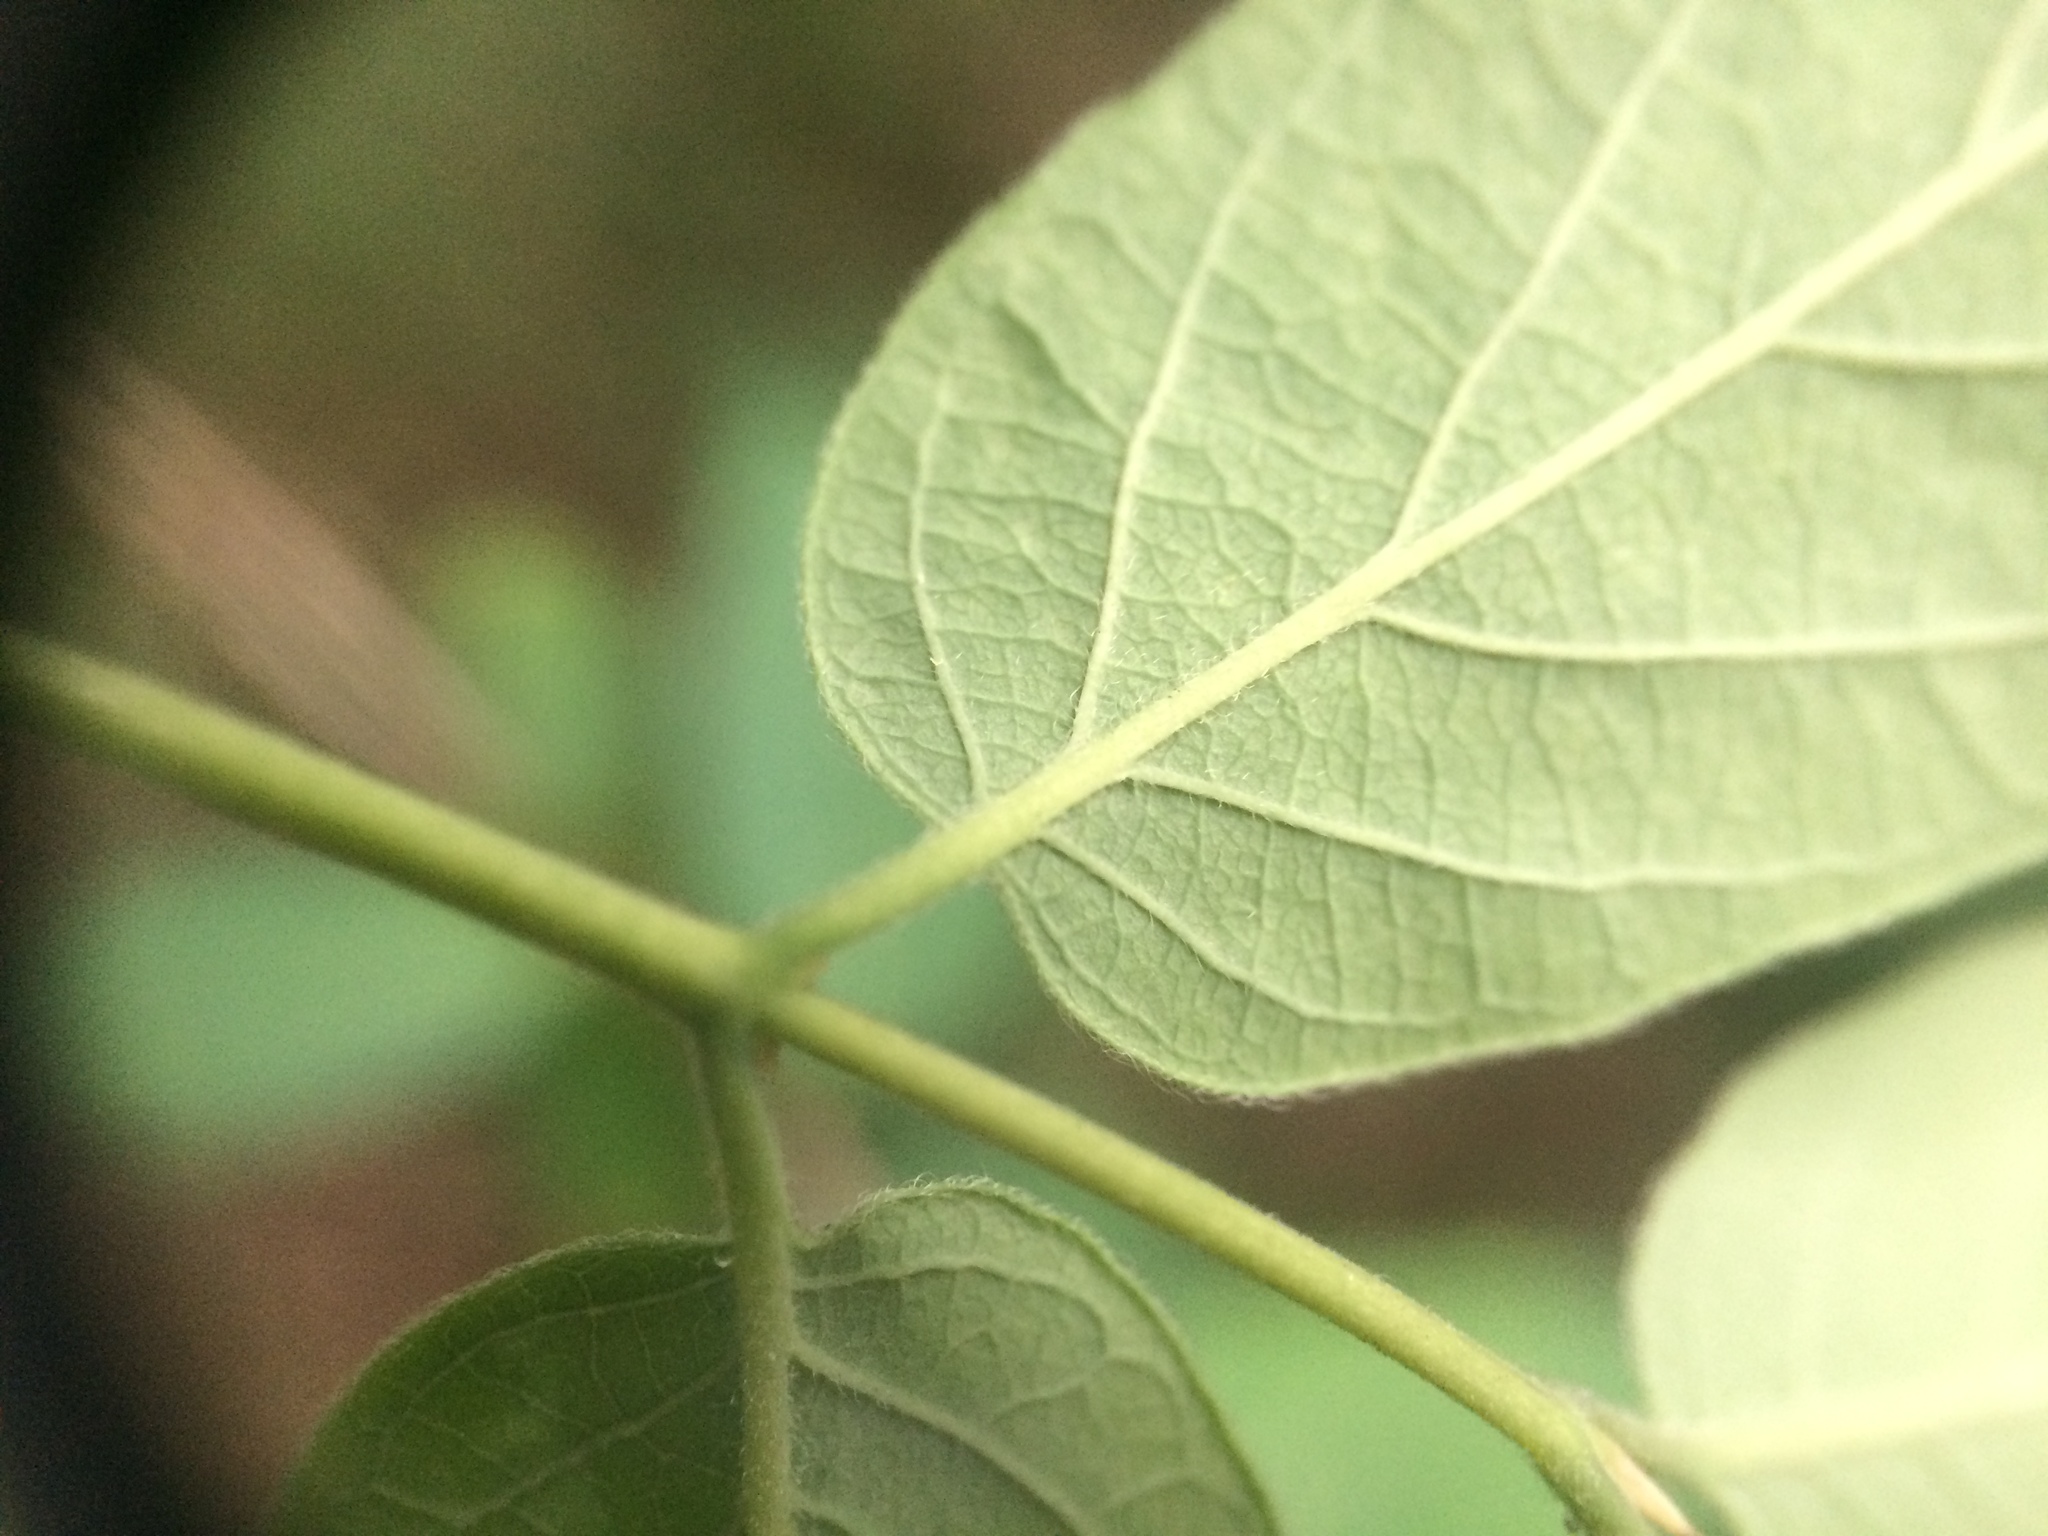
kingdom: Plantae
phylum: Tracheophyta
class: Magnoliopsida
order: Dipsacales
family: Caprifoliaceae
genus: Lonicera
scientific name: Lonicera bella
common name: Bell's honeysuckle
